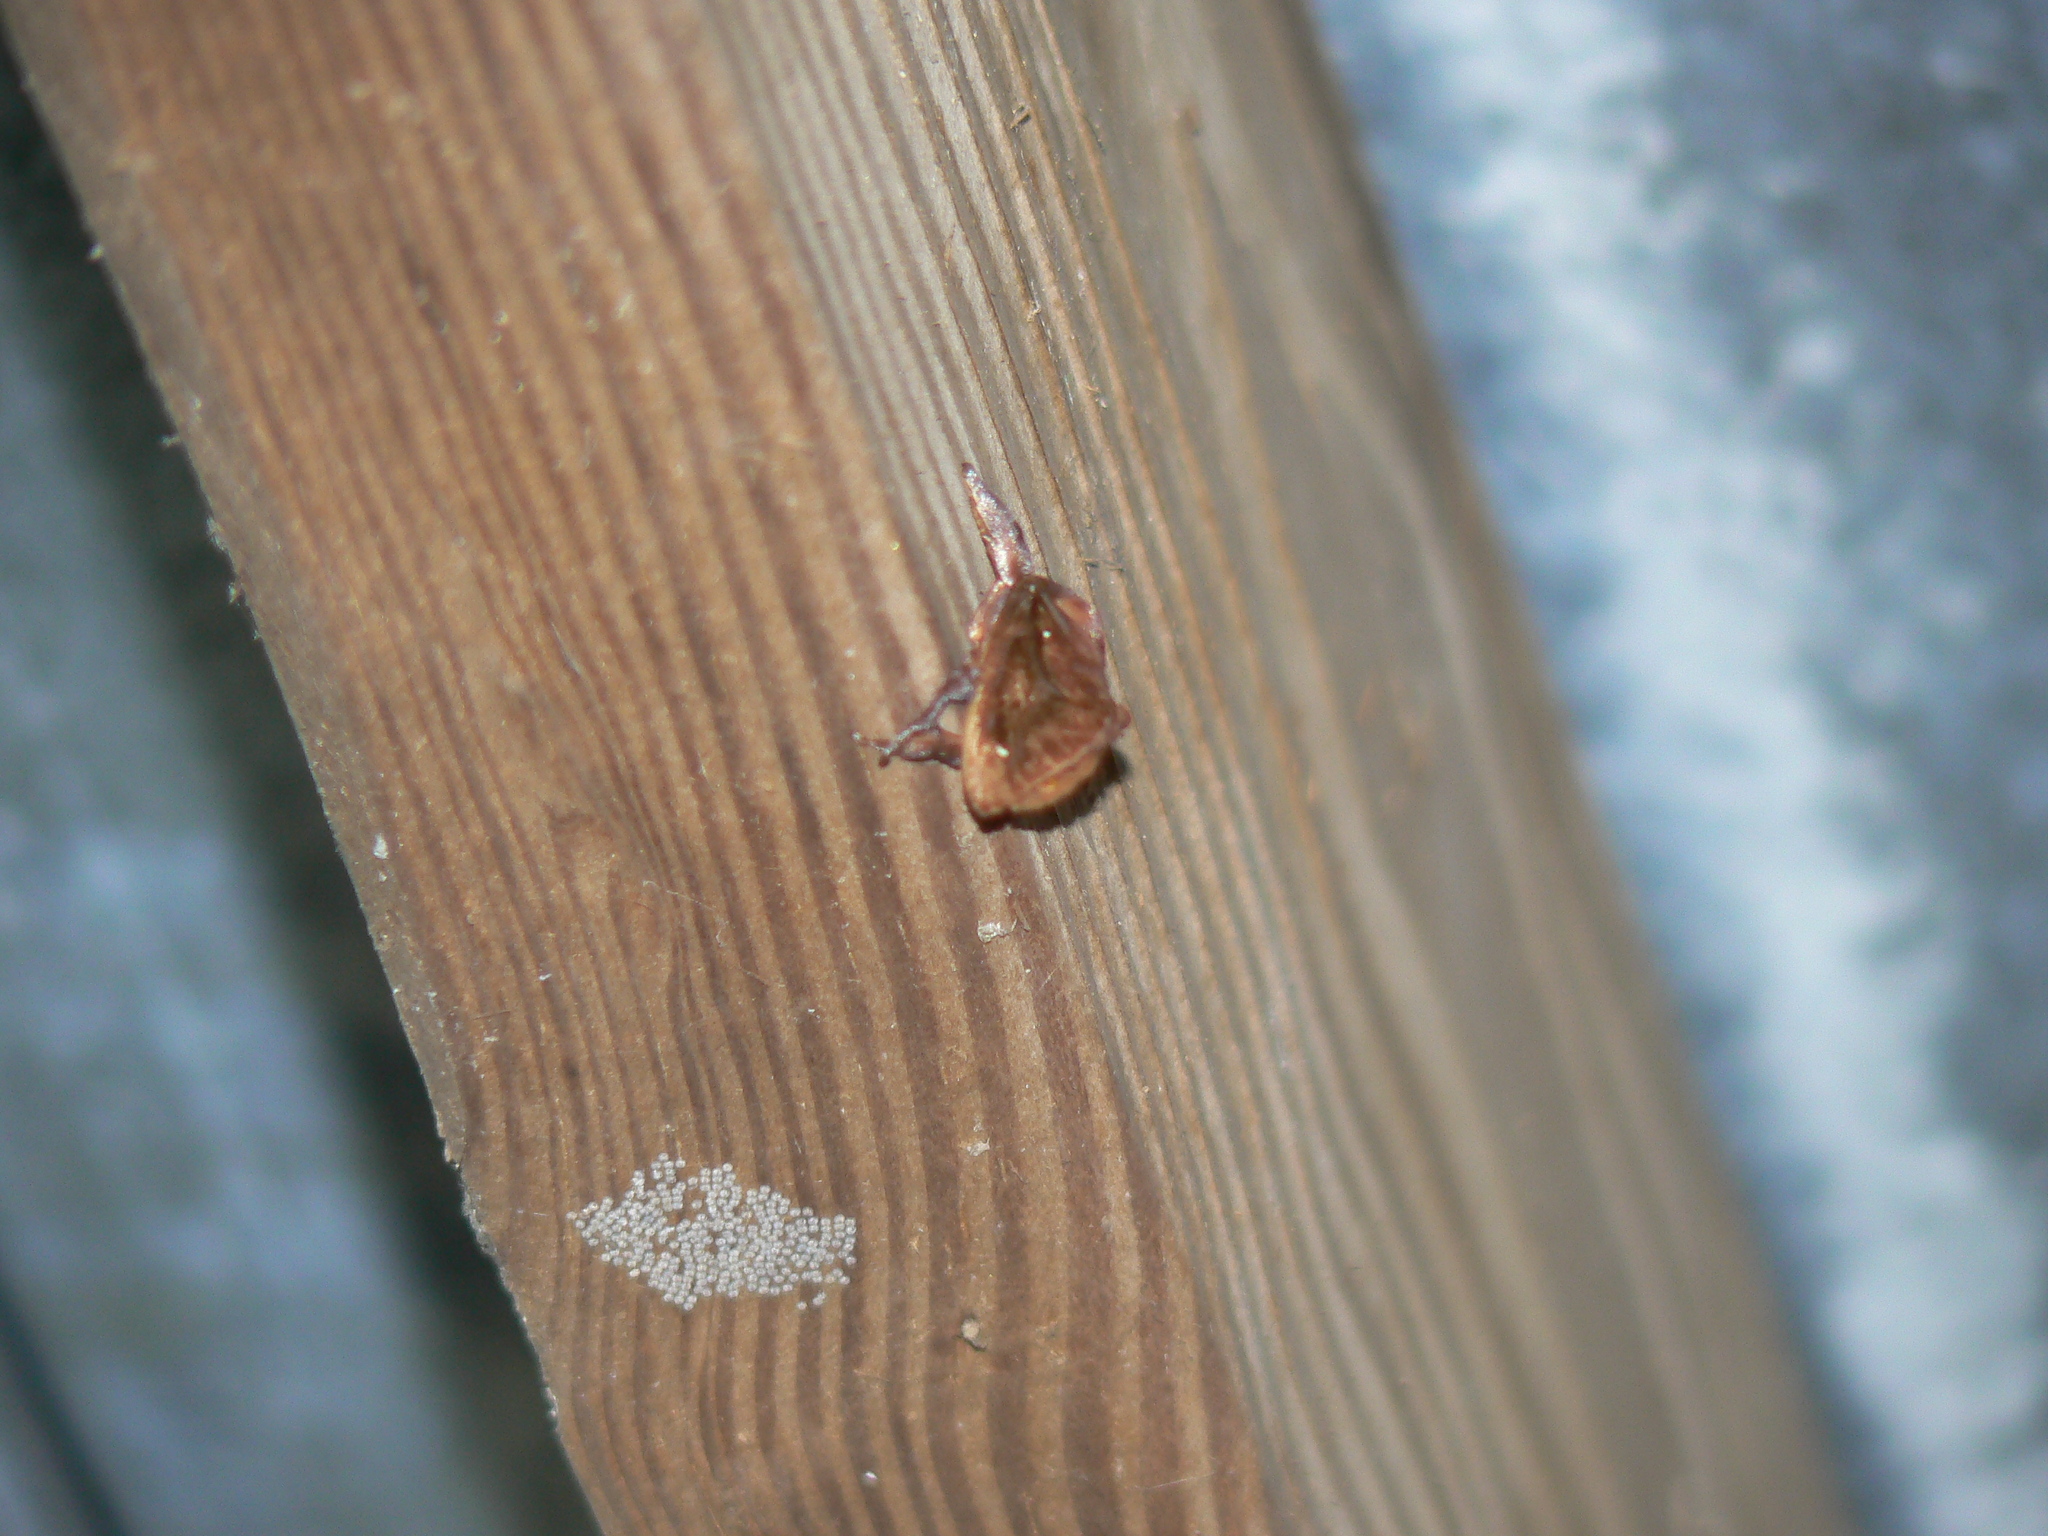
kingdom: Animalia
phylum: Arthropoda
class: Insecta
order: Lepidoptera
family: Limacodidae
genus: Acharia
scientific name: Acharia stimulea
